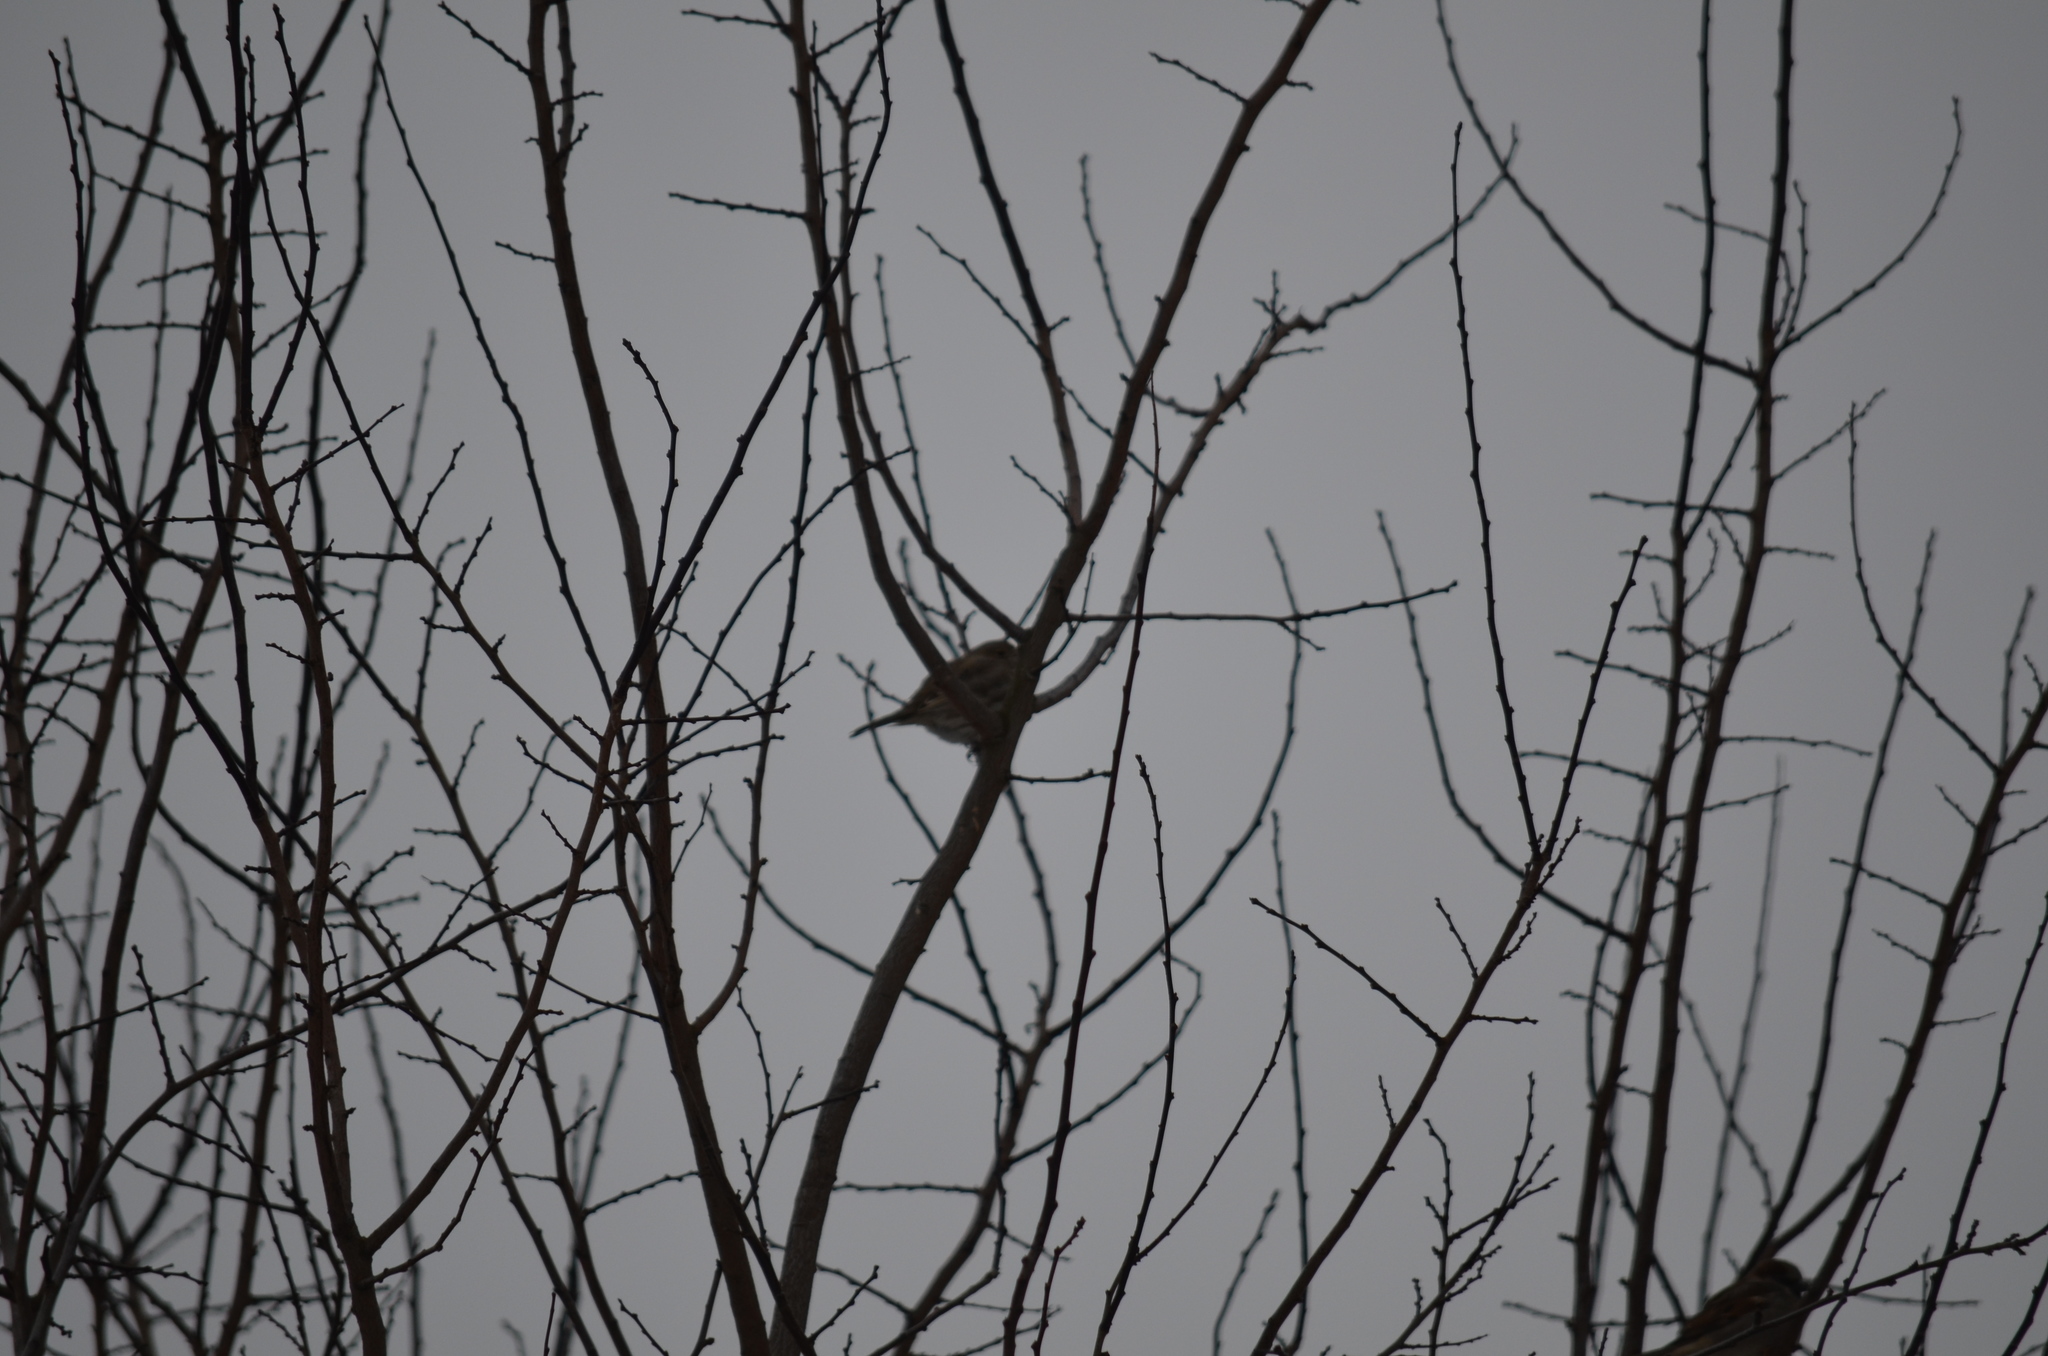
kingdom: Animalia
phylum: Chordata
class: Aves
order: Passeriformes
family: Fringillidae
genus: Haemorhous
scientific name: Haemorhous mexicanus
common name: House finch
